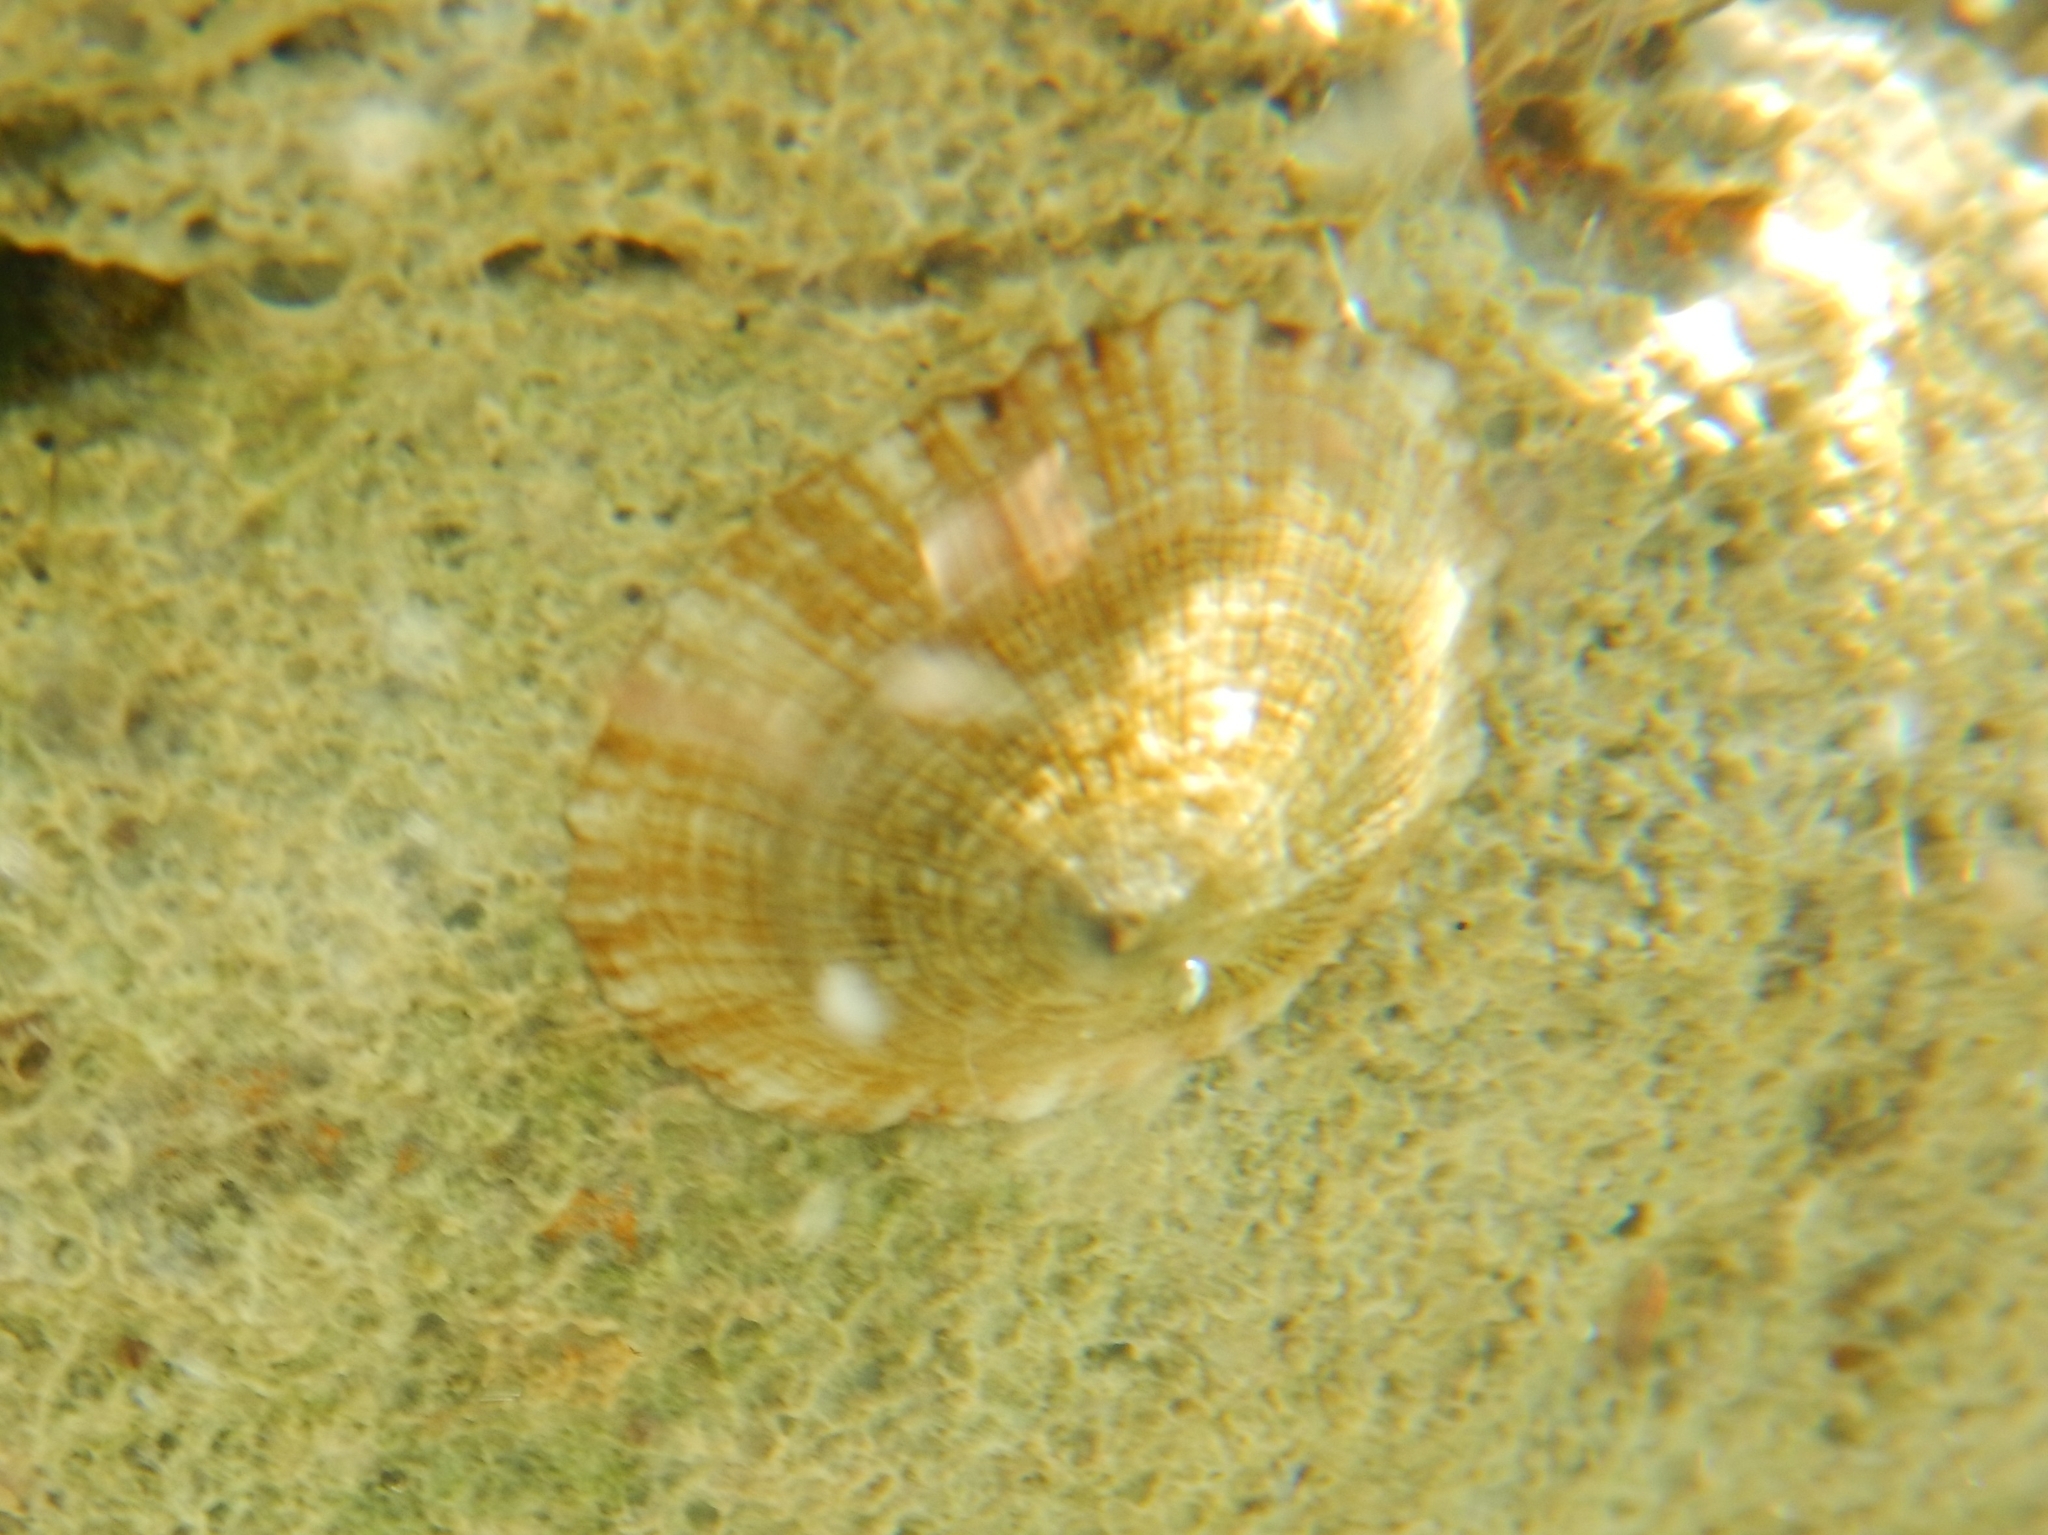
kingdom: Animalia
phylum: Mollusca
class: Gastropoda
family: Patellidae
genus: Patella
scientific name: Patella caerulea
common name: Mediterranean limpet
